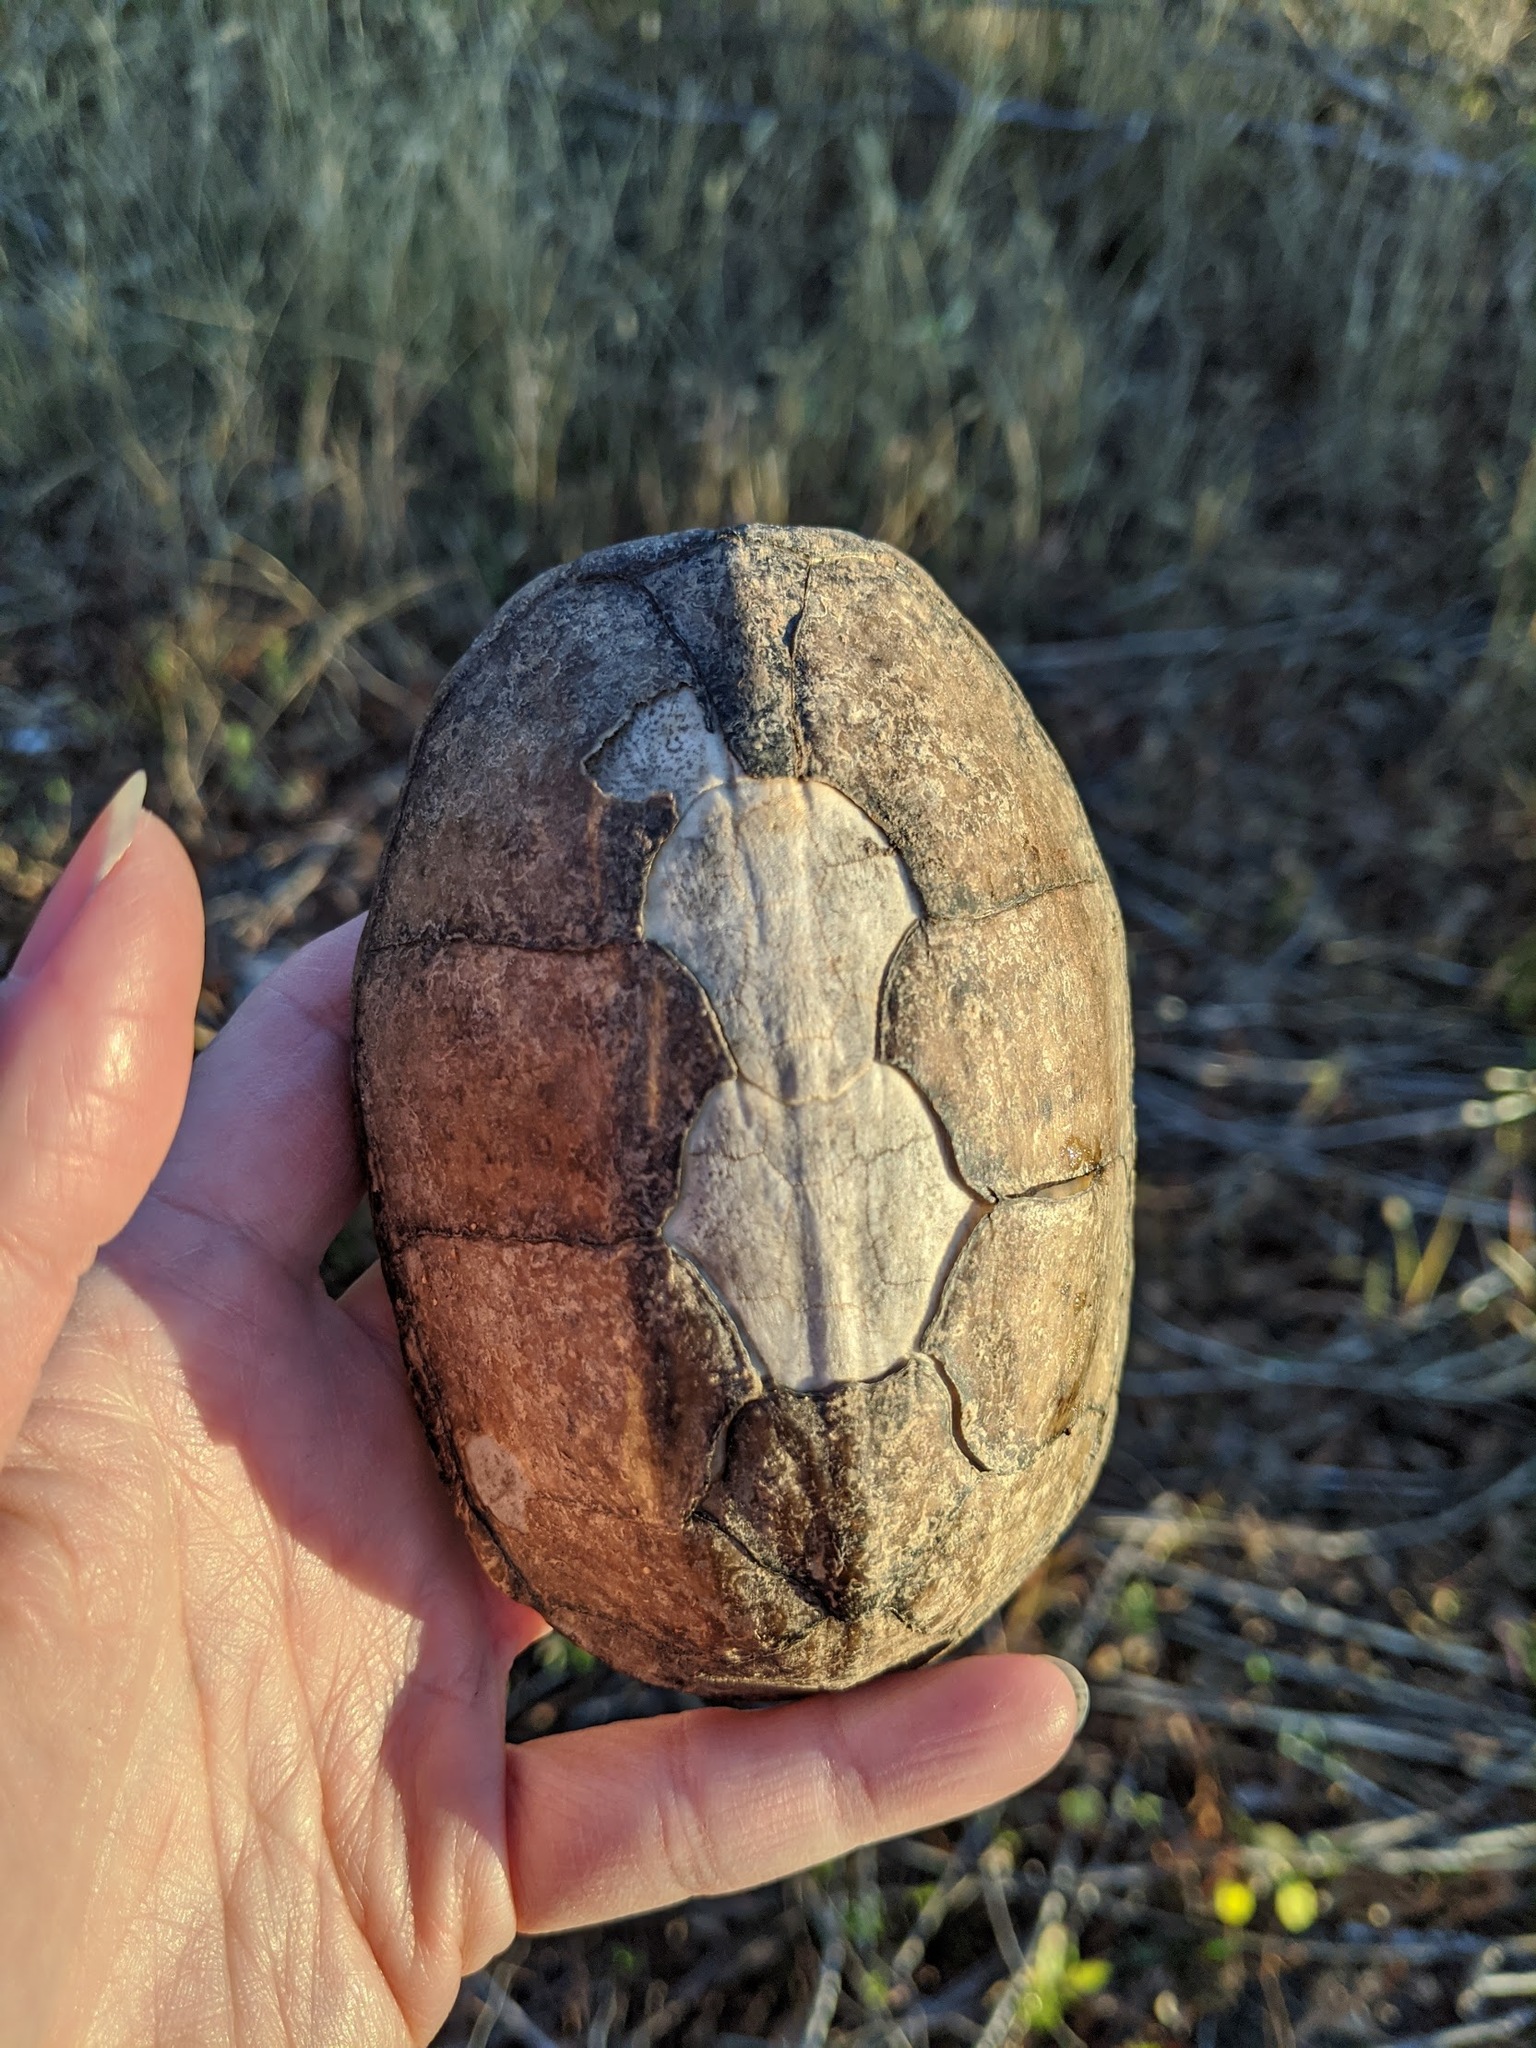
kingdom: Animalia
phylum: Chordata
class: Testudines
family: Kinosternidae
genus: Sternotherus
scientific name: Sternotherus odoratus
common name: Common musk turtle
